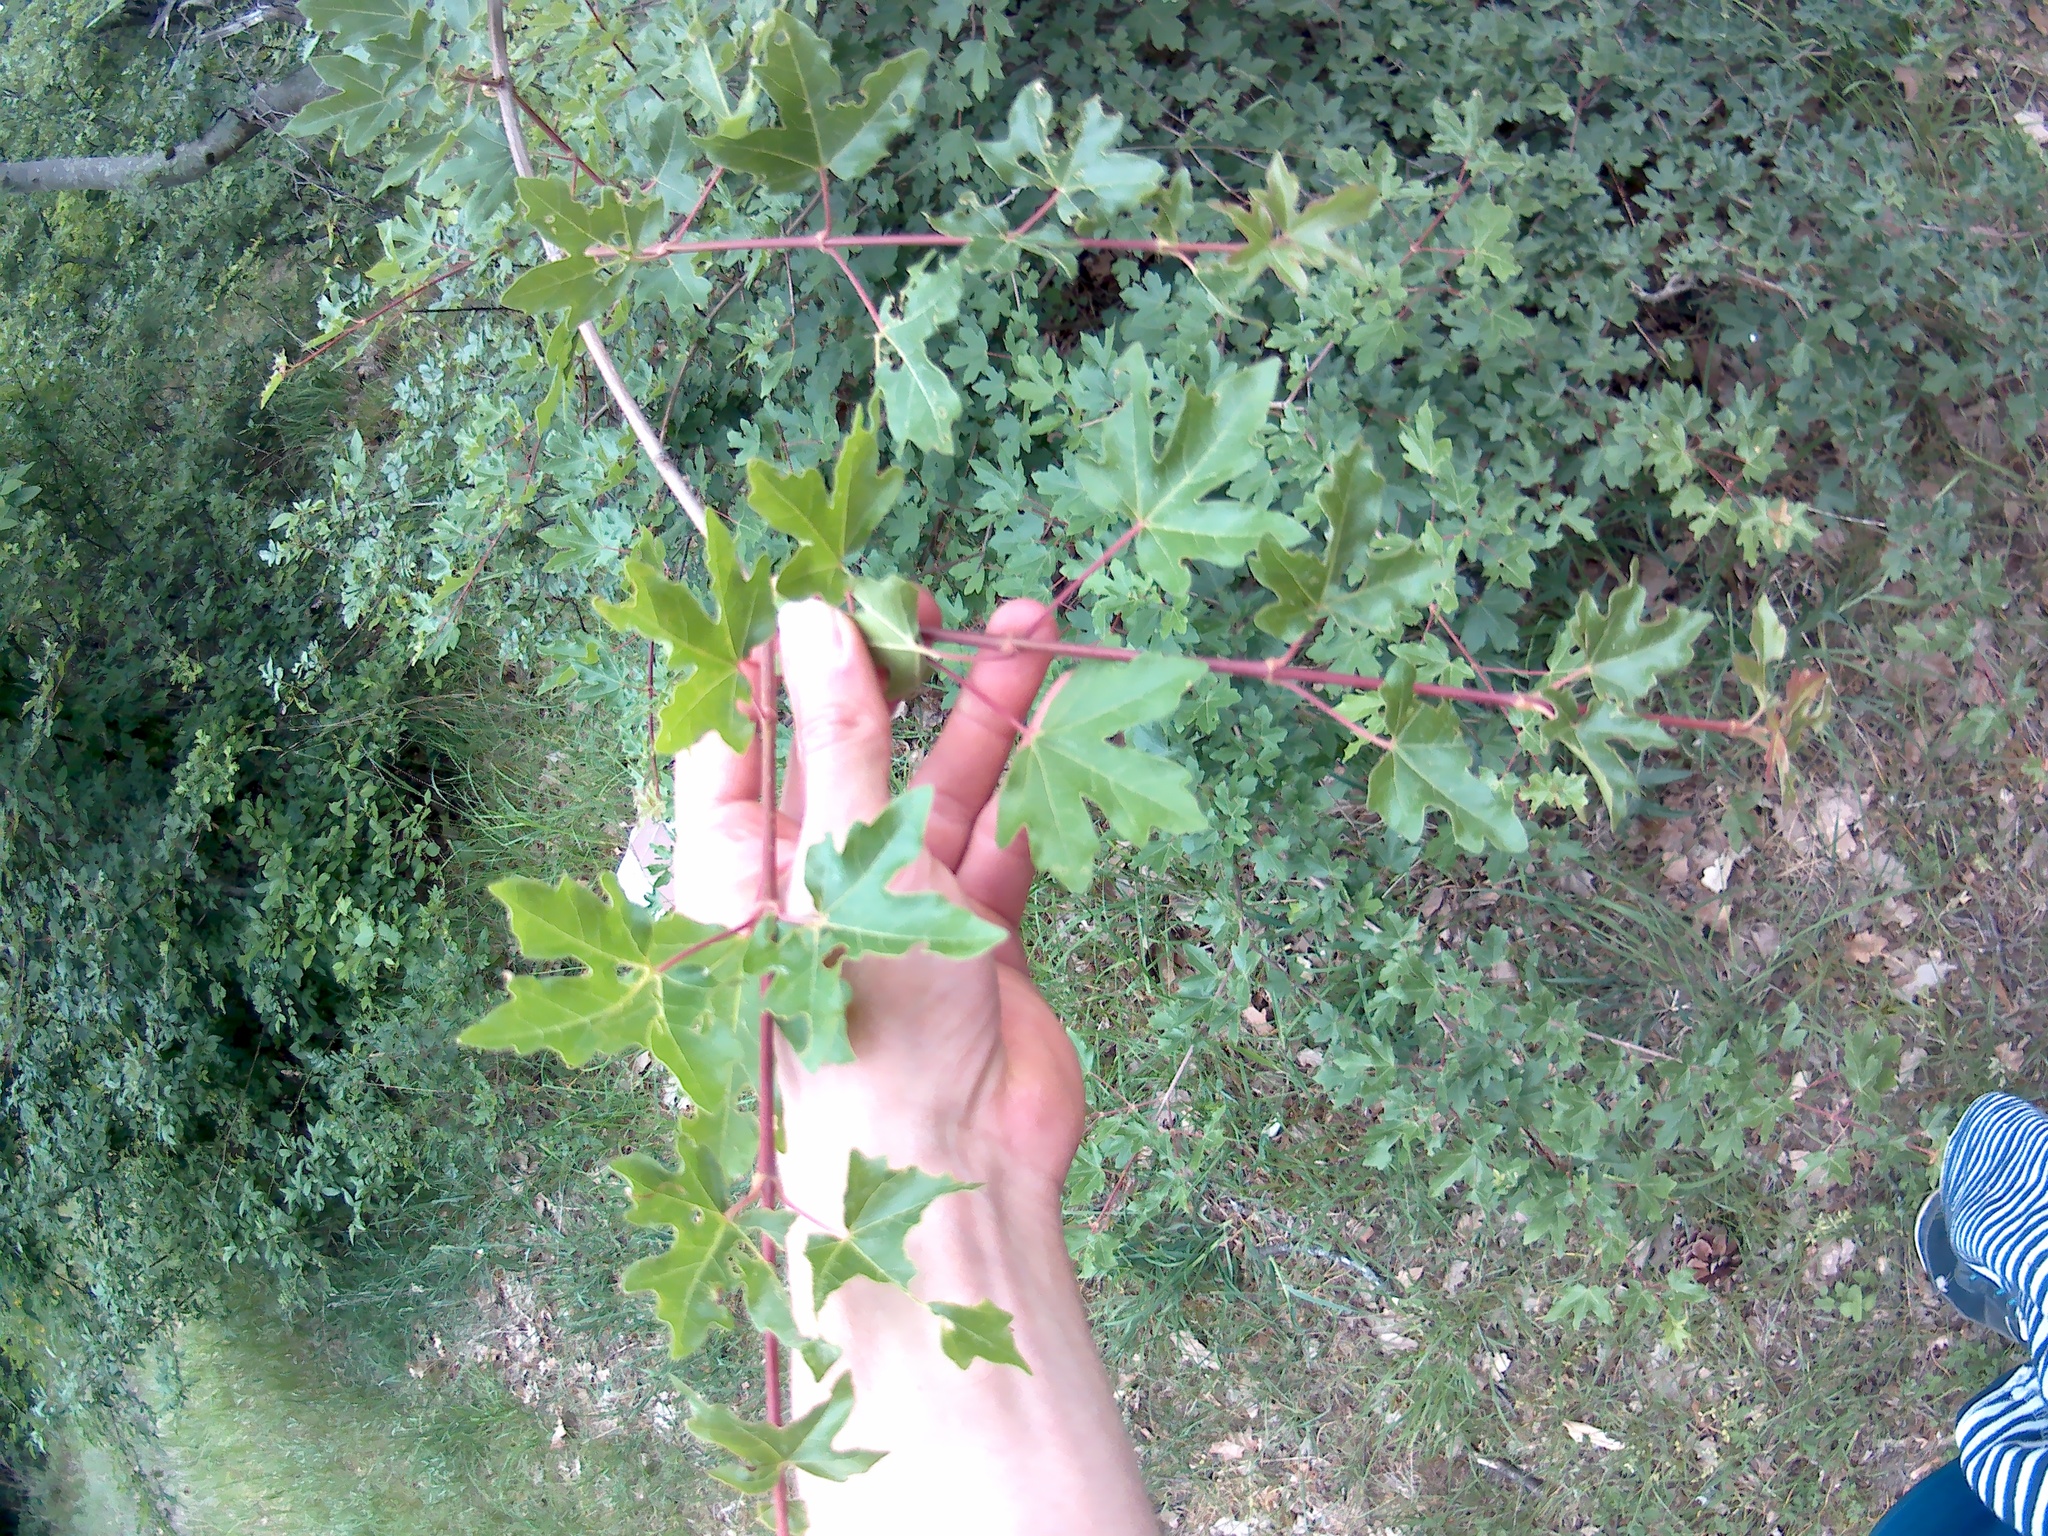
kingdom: Plantae
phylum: Tracheophyta
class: Magnoliopsida
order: Sapindales
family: Sapindaceae
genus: Acer
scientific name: Acer campestre
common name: Field maple
